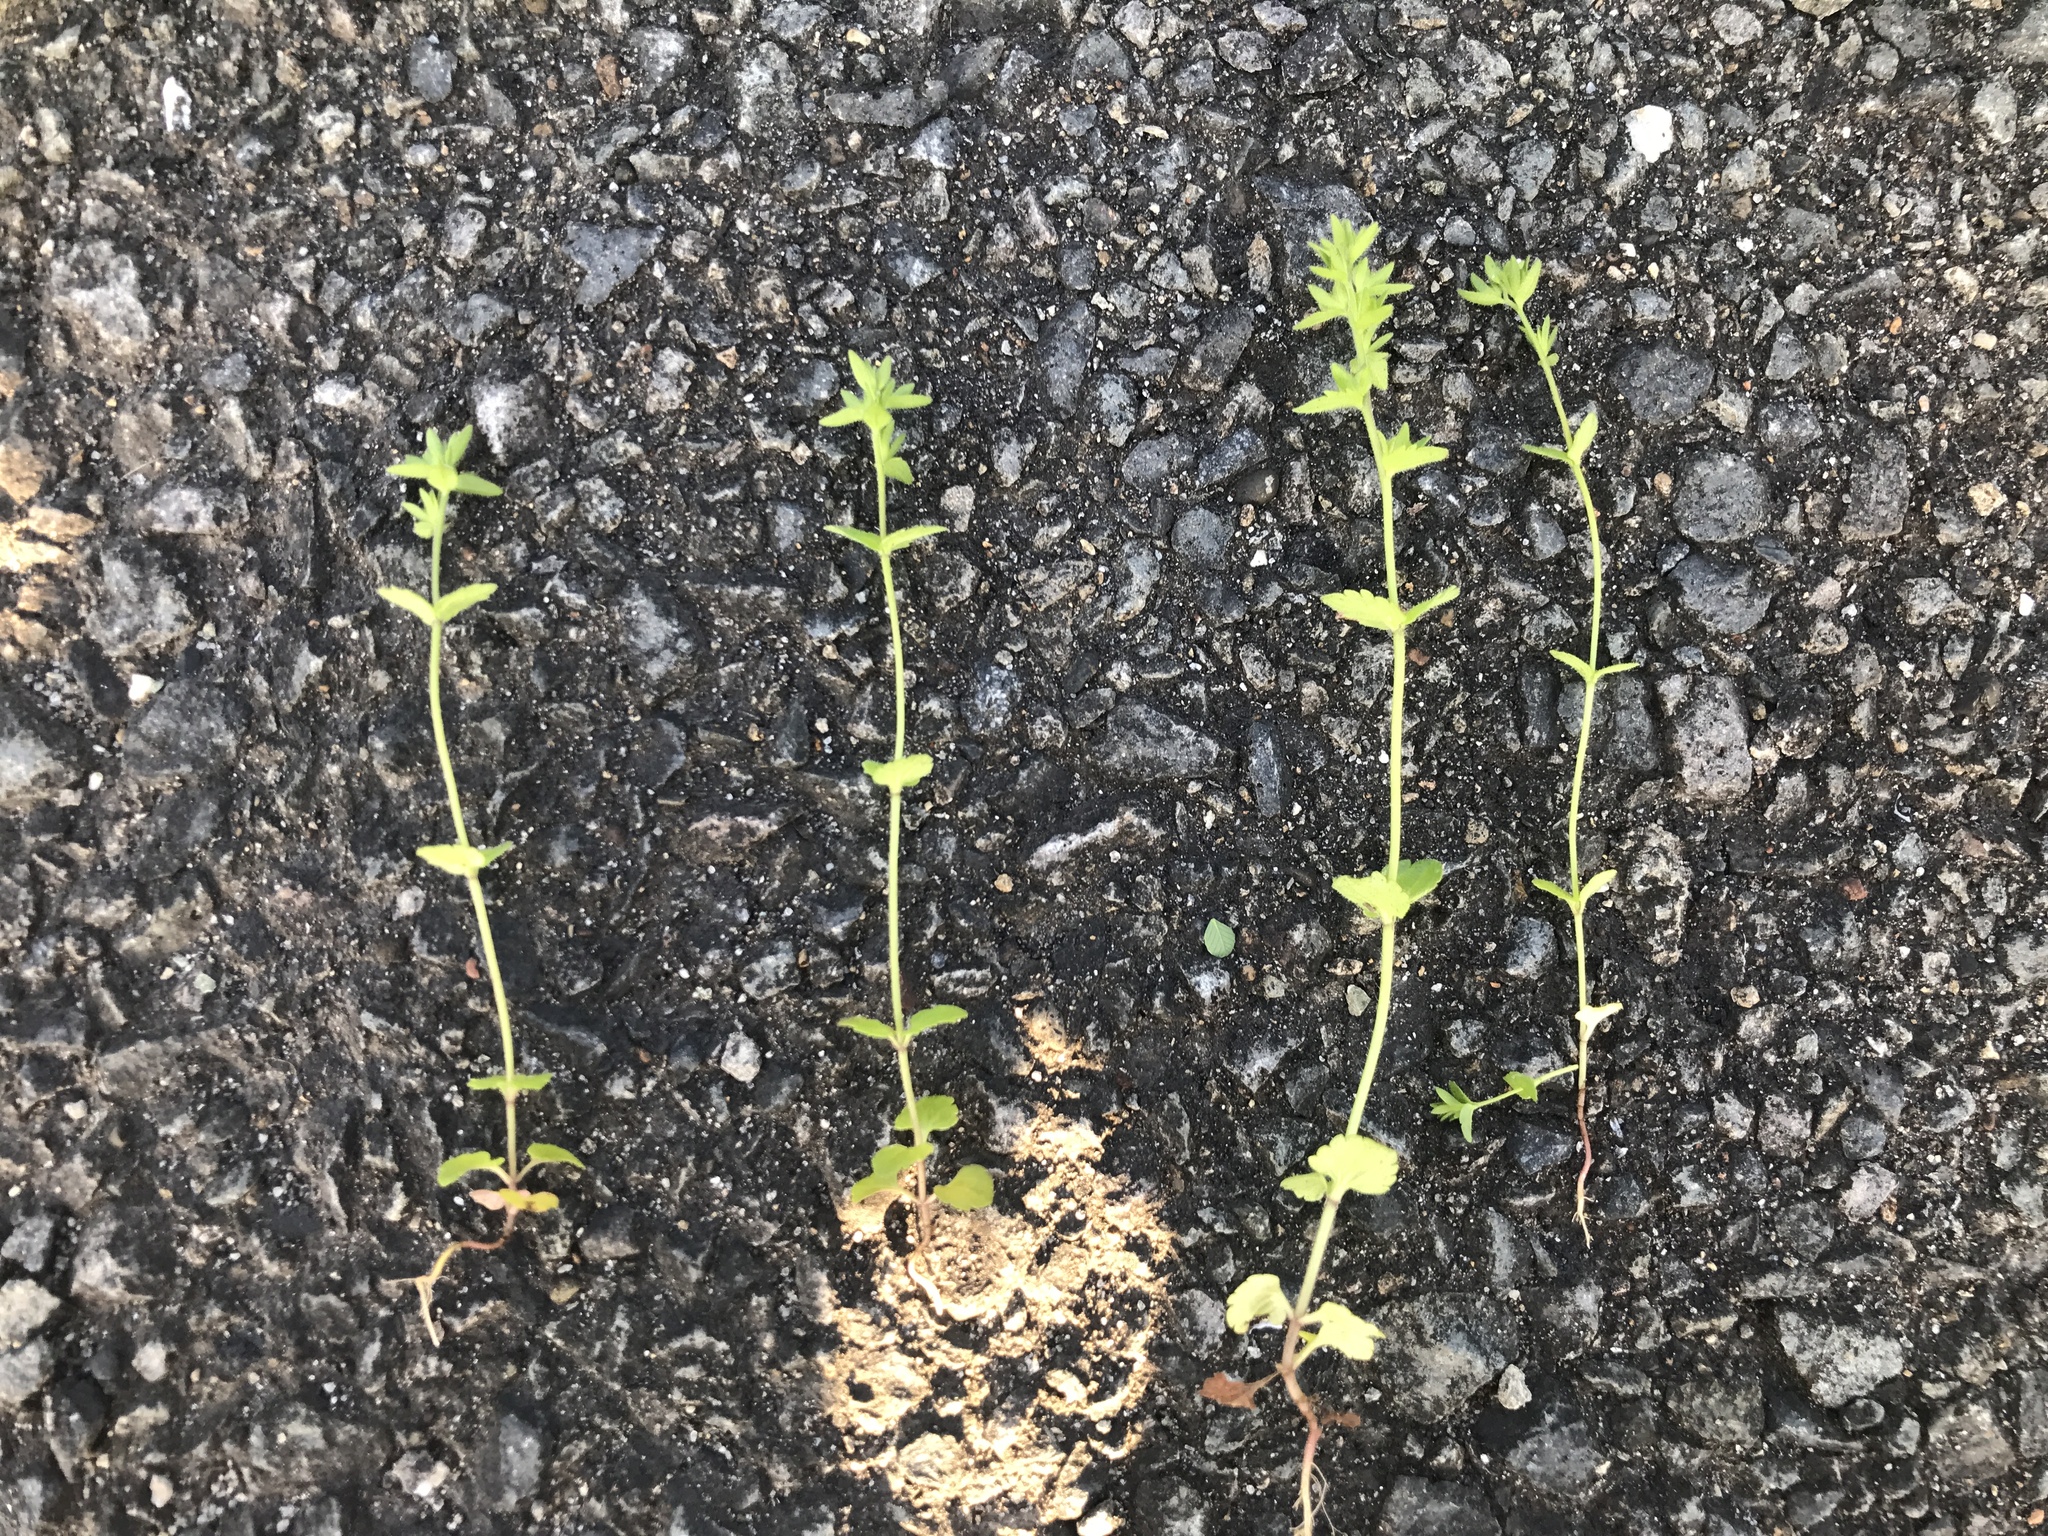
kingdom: Plantae
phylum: Tracheophyta
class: Magnoliopsida
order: Lamiales
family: Plantaginaceae
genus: Veronica
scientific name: Veronica arvensis
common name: Corn speedwell
